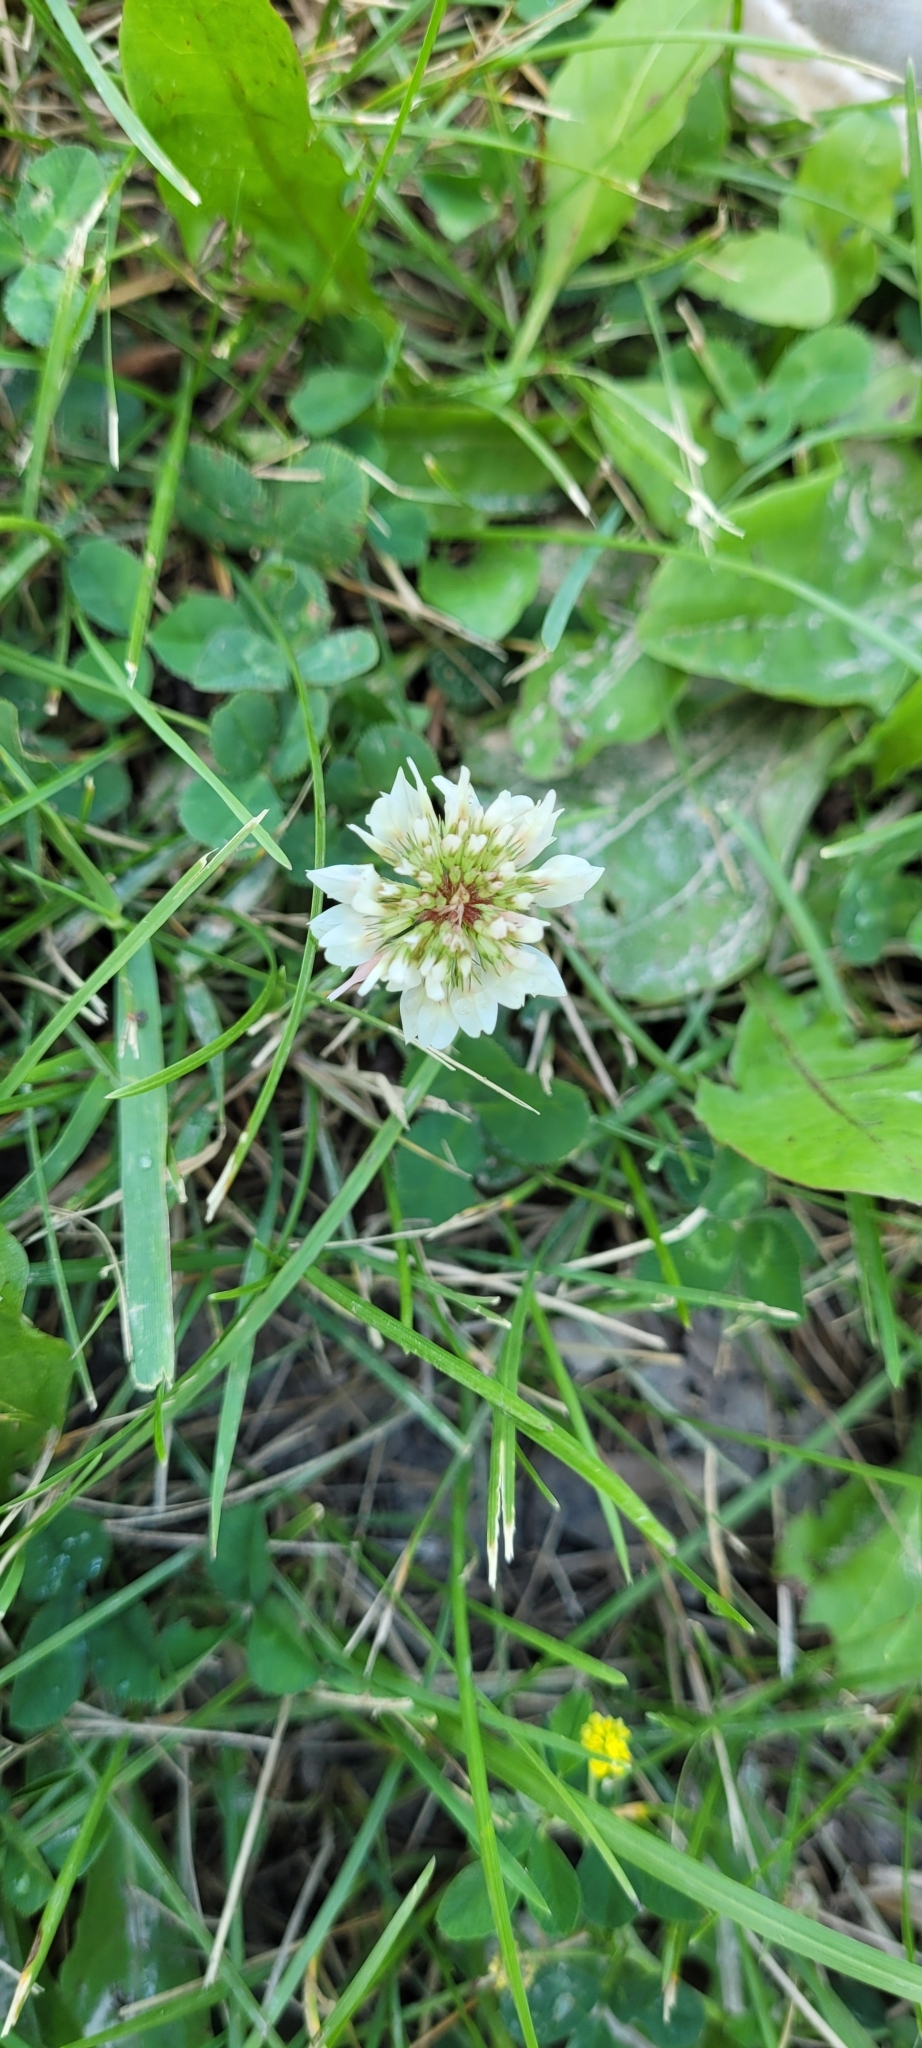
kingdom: Plantae
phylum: Tracheophyta
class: Magnoliopsida
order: Fabales
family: Fabaceae
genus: Trifolium
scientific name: Trifolium repens
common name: White clover
